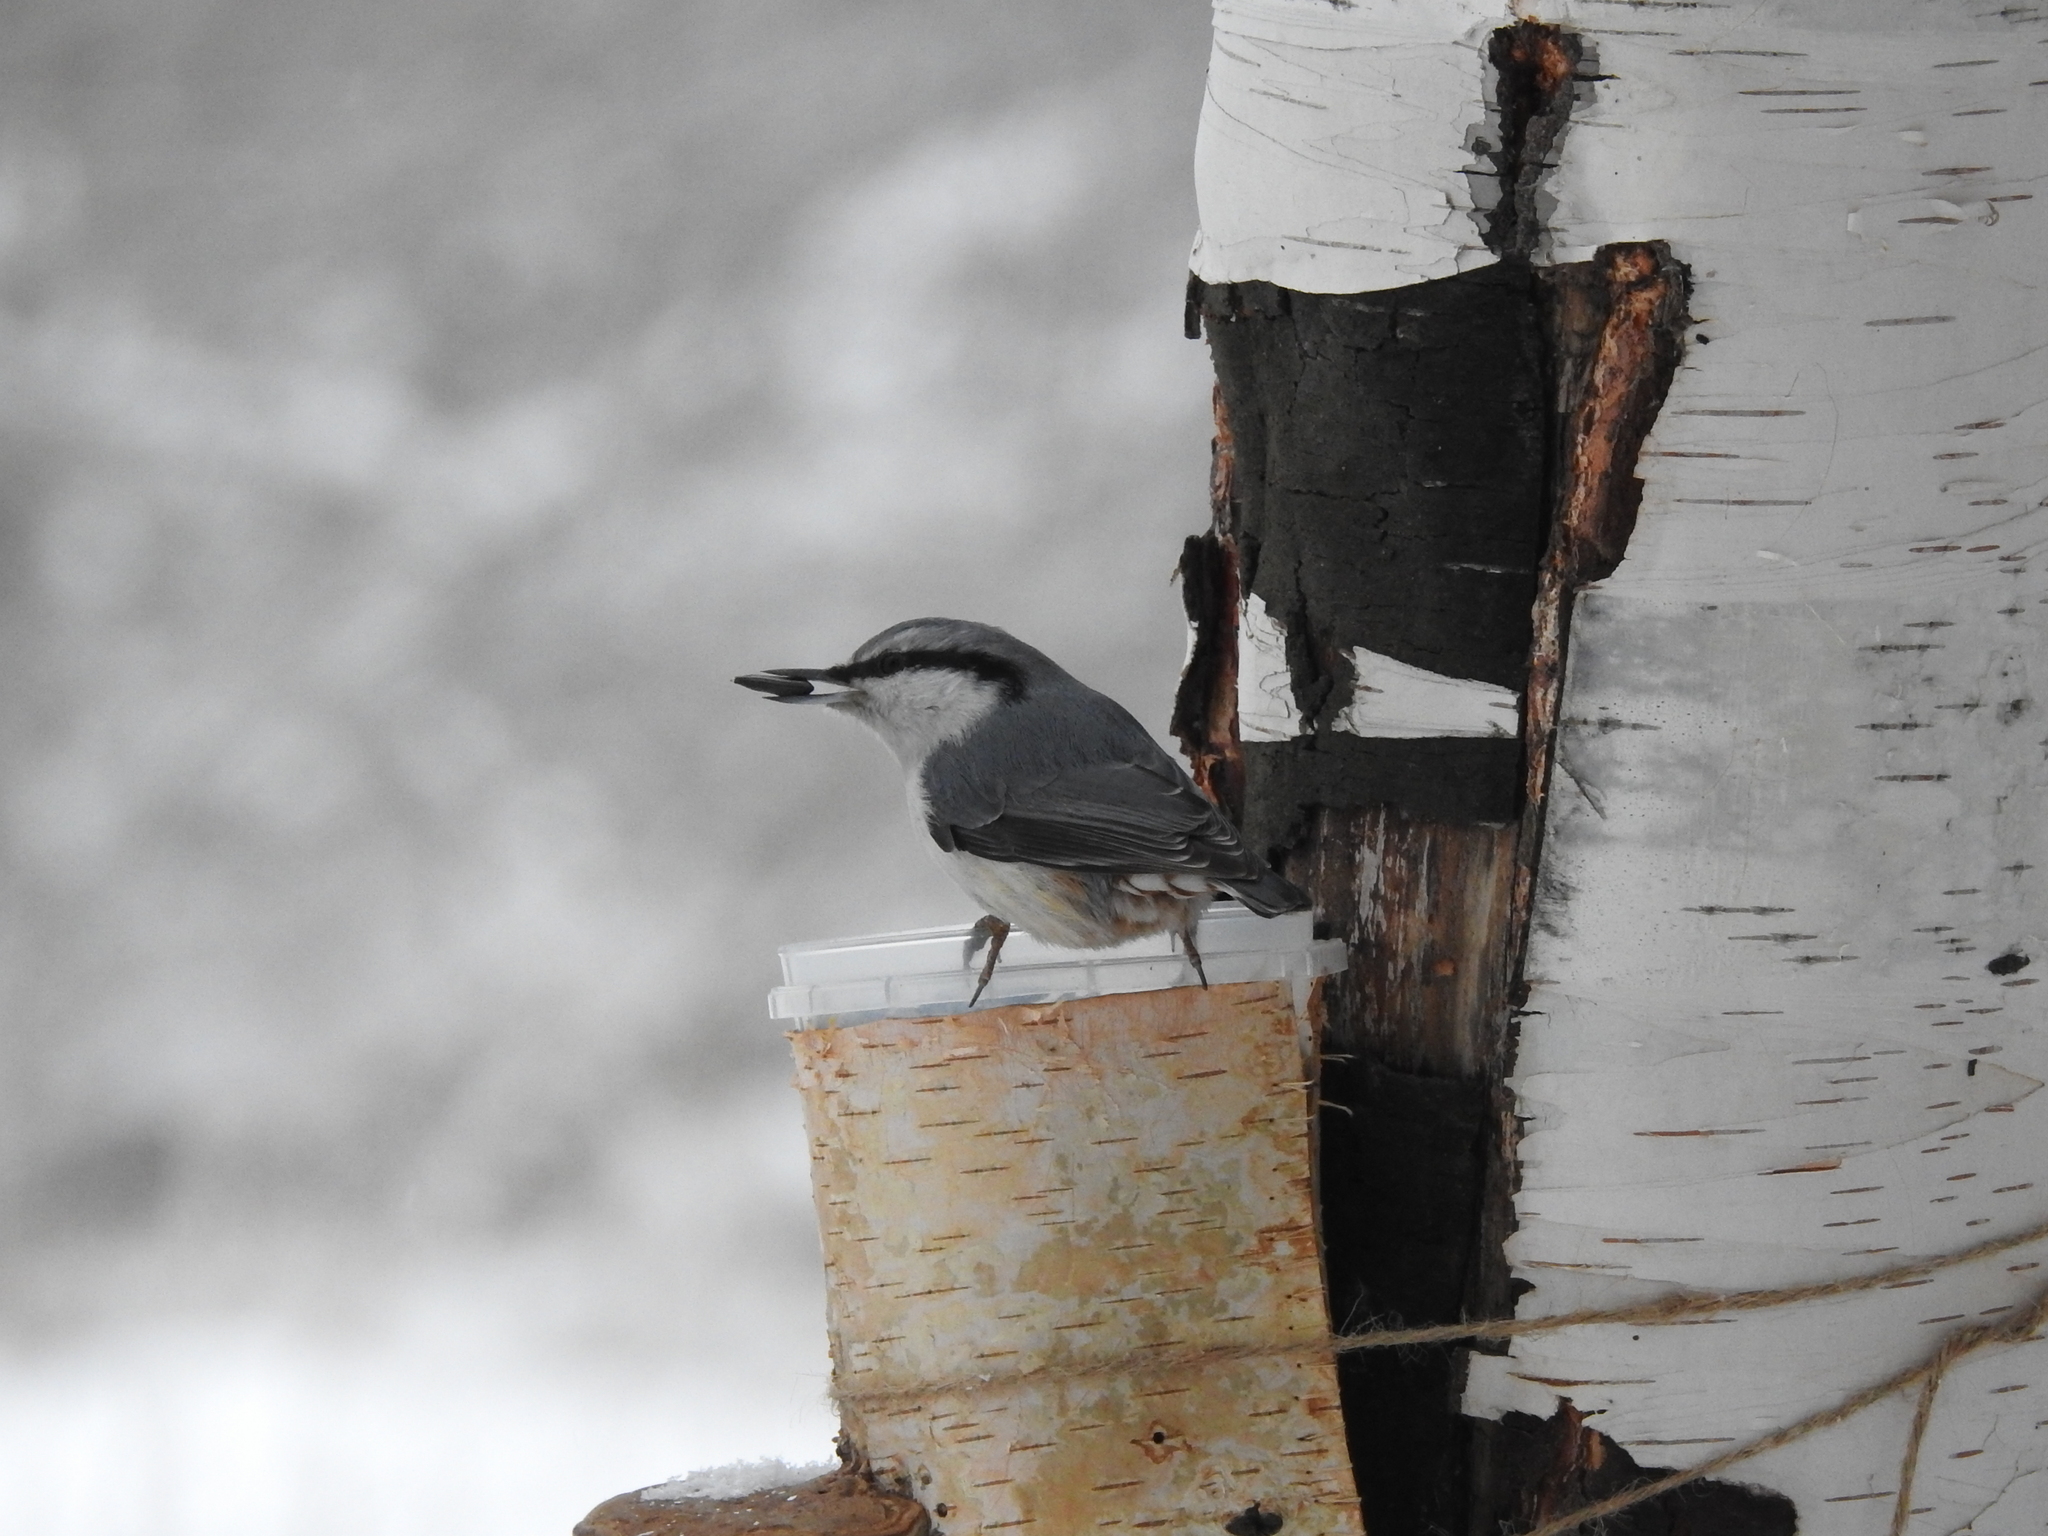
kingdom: Animalia
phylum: Chordata
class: Aves
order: Passeriformes
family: Sittidae
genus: Sitta
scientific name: Sitta europaea
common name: Eurasian nuthatch
